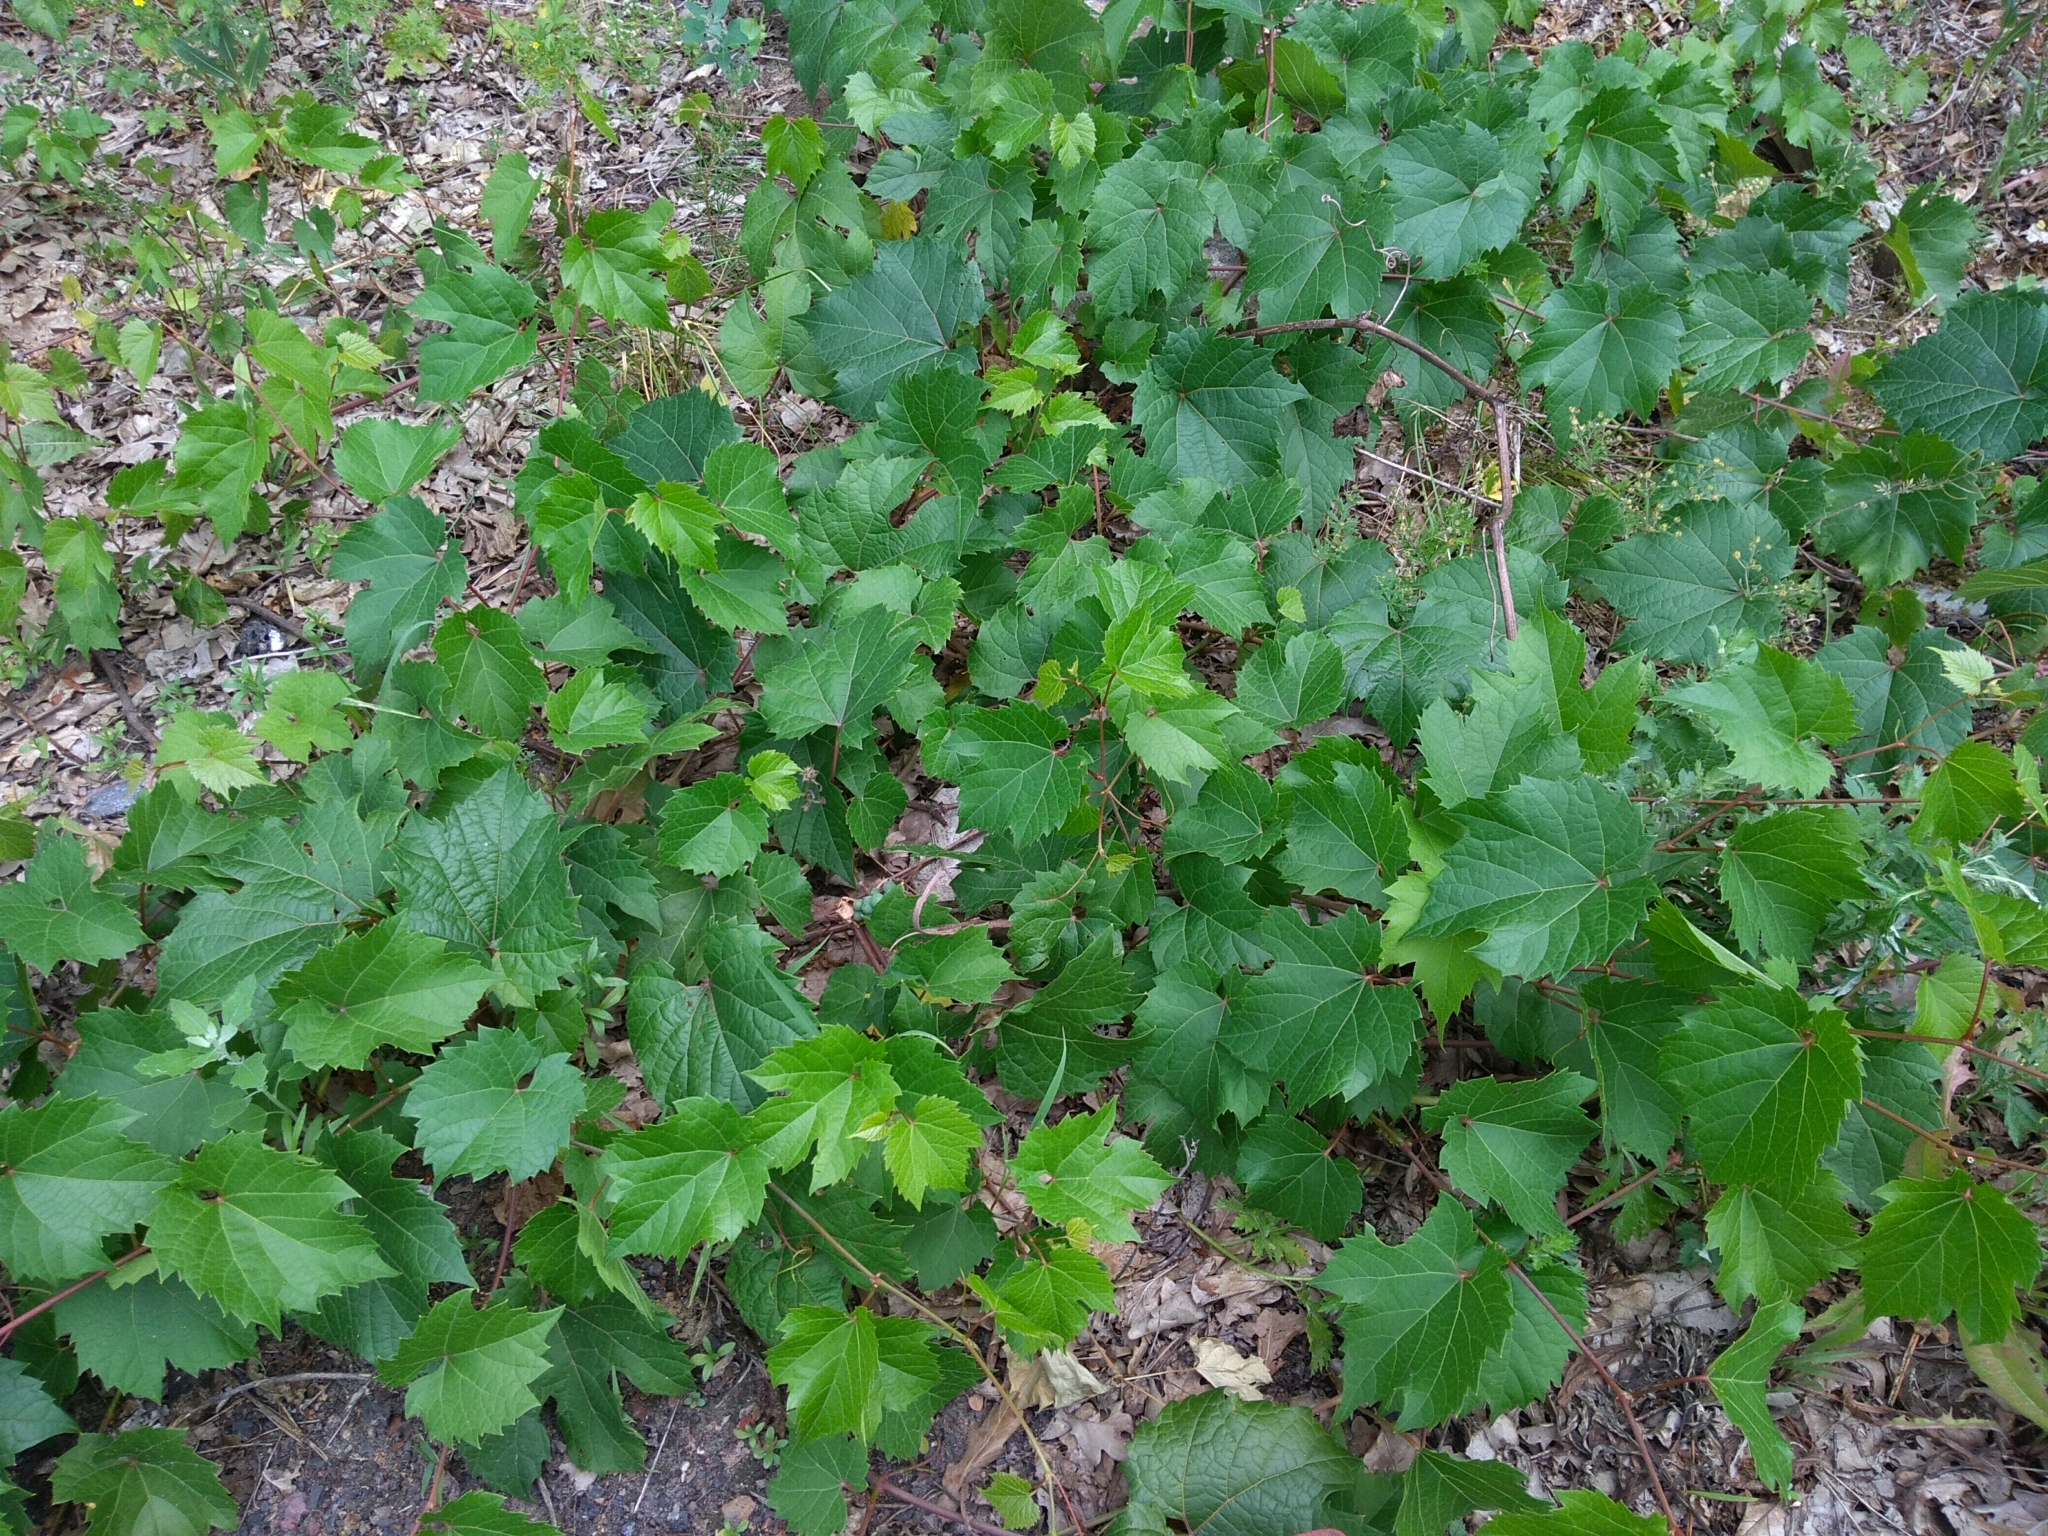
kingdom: Plantae
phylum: Tracheophyta
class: Magnoliopsida
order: Vitales
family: Vitaceae
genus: Vitis
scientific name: Vitis vinifera
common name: Grape-vine
